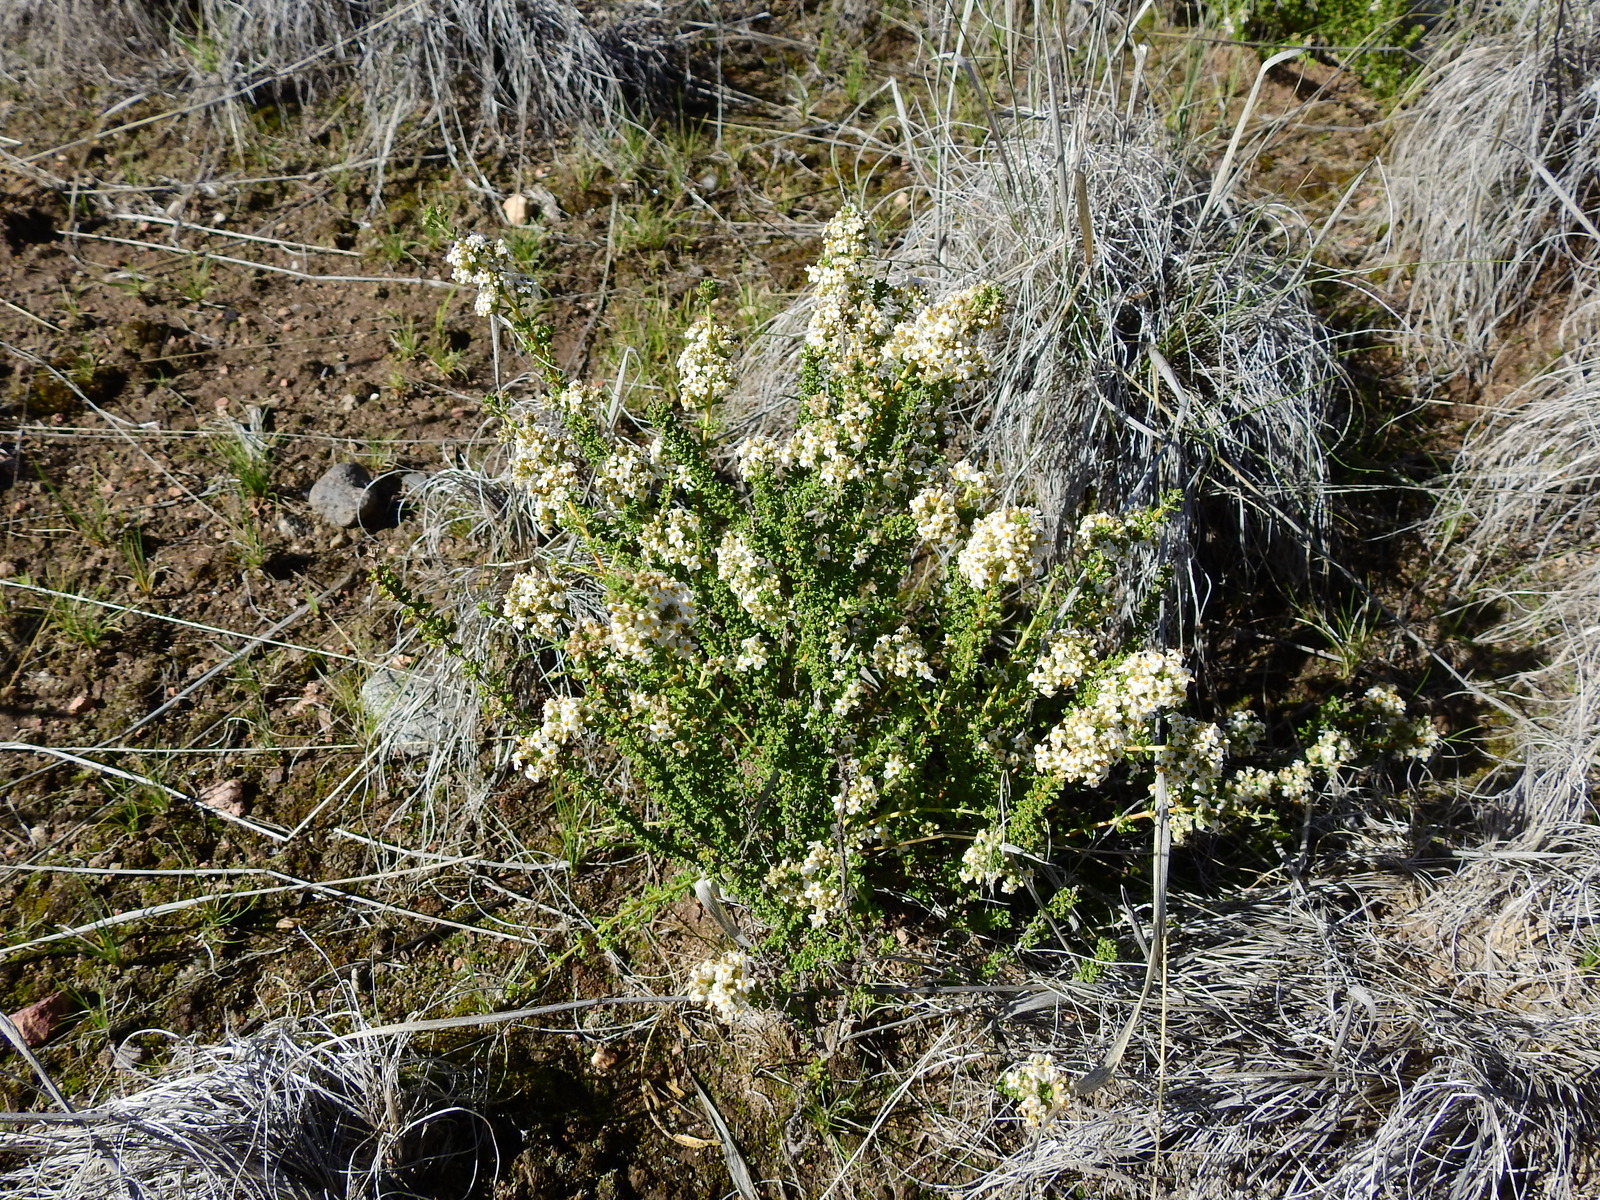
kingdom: Plantae
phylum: Tracheophyta
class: Magnoliopsida
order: Lamiales
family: Verbenaceae
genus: Acantholippia
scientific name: Acantholippia seriphioides
